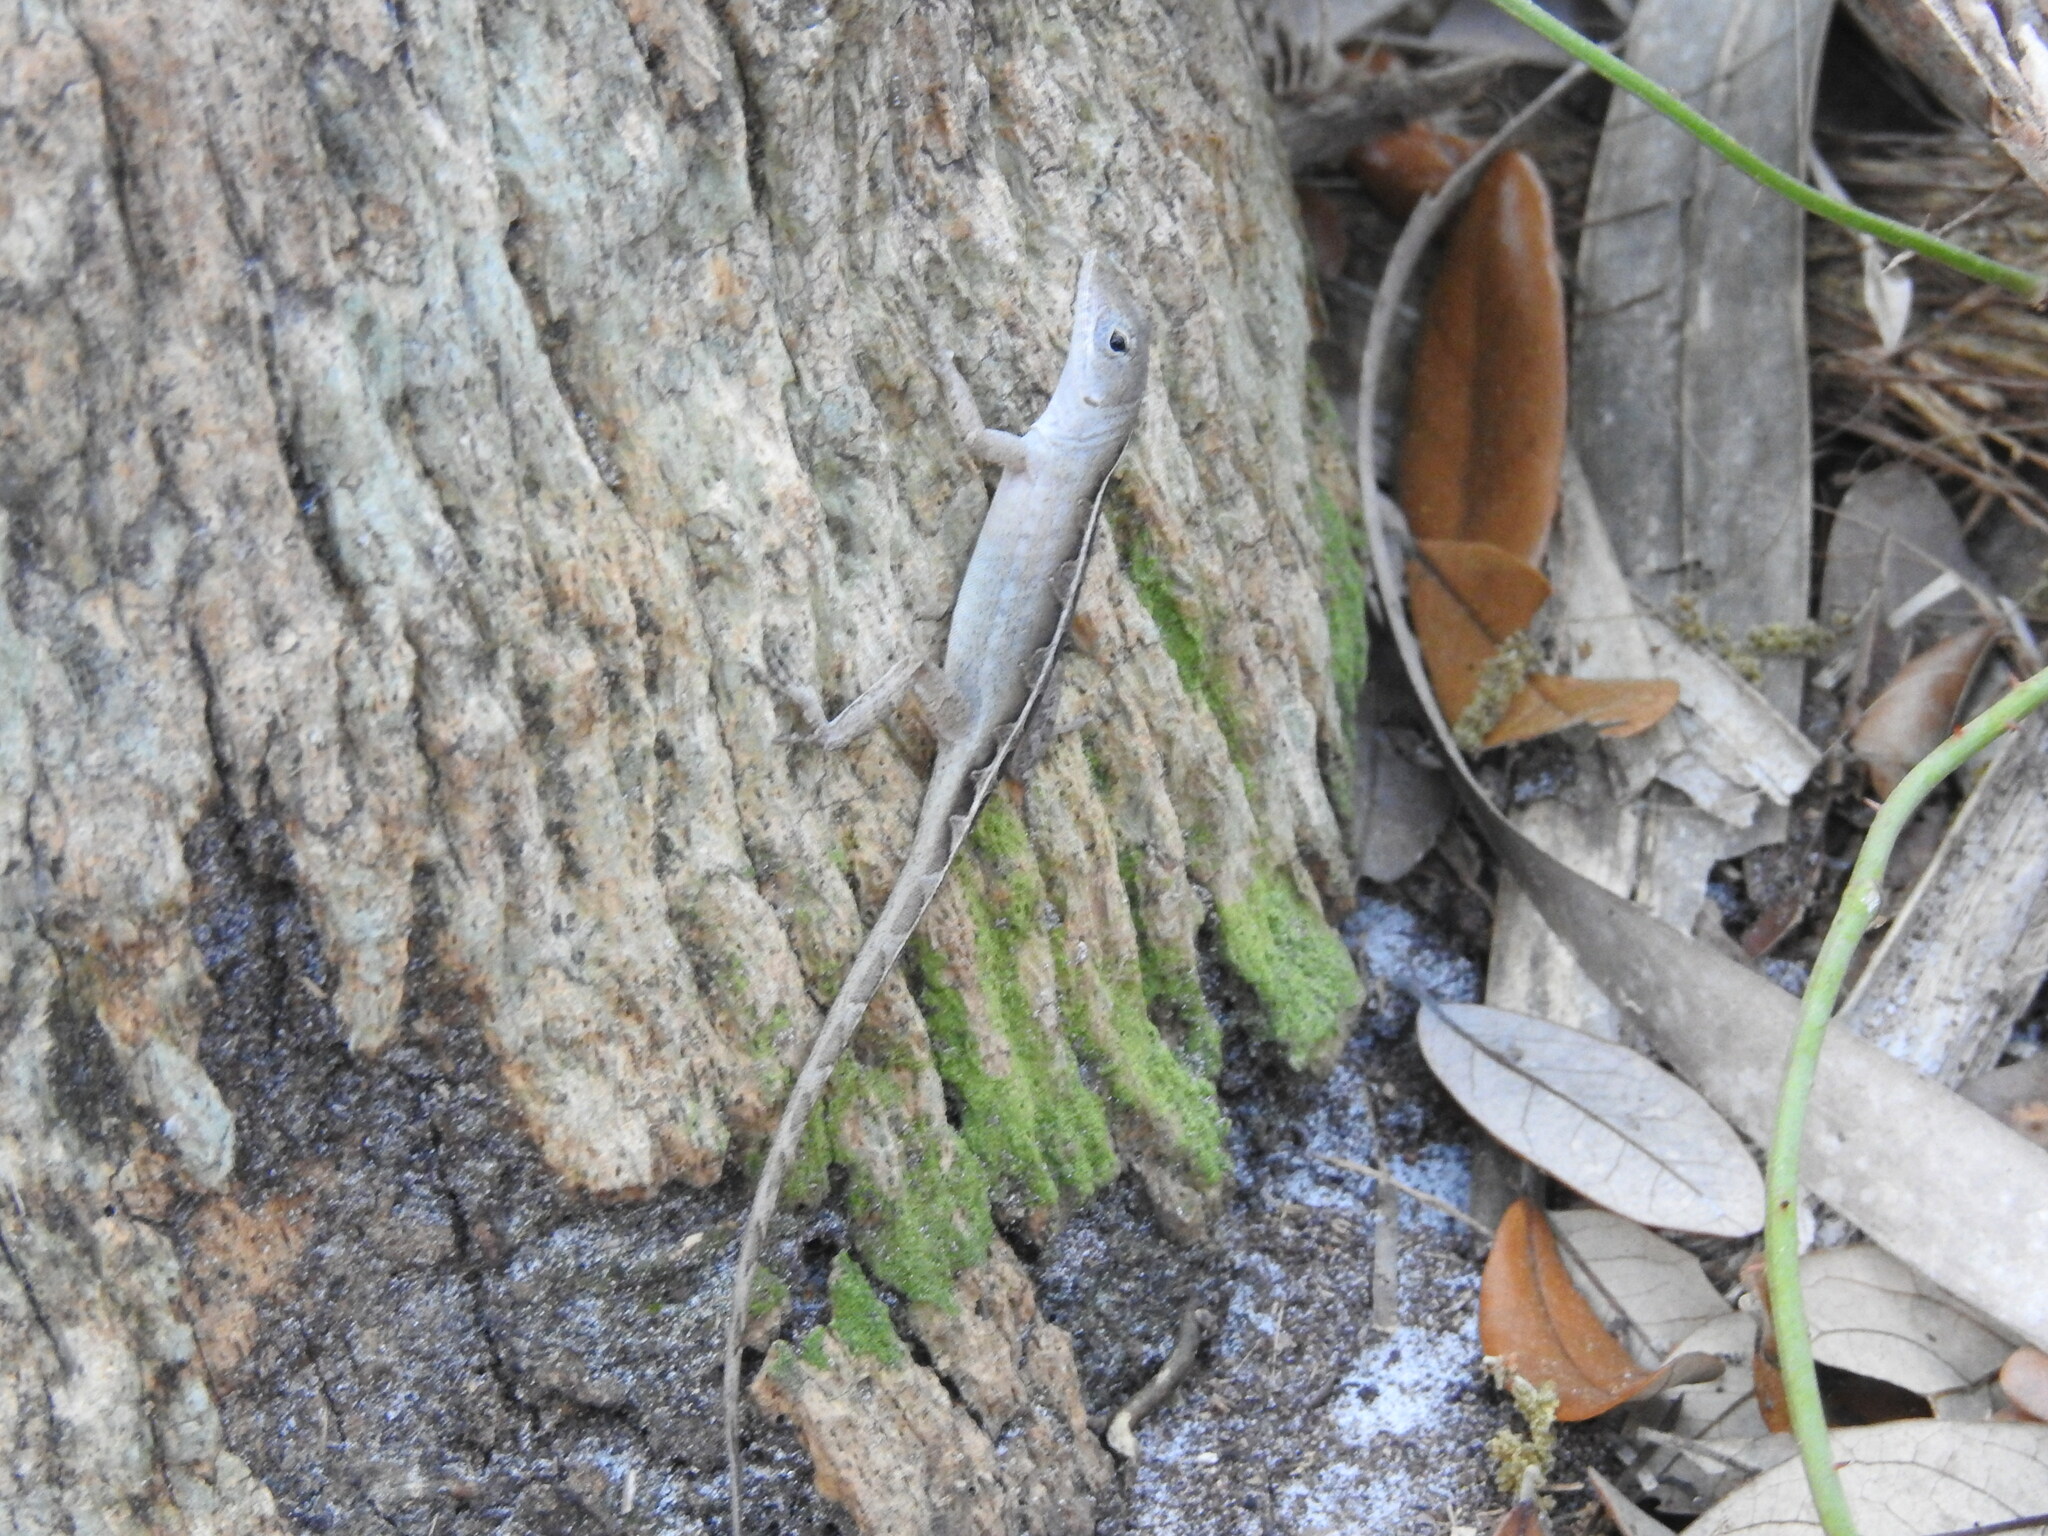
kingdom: Animalia
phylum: Chordata
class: Squamata
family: Dactyloidae
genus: Anolis
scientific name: Anolis sagrei
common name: Brown anole
